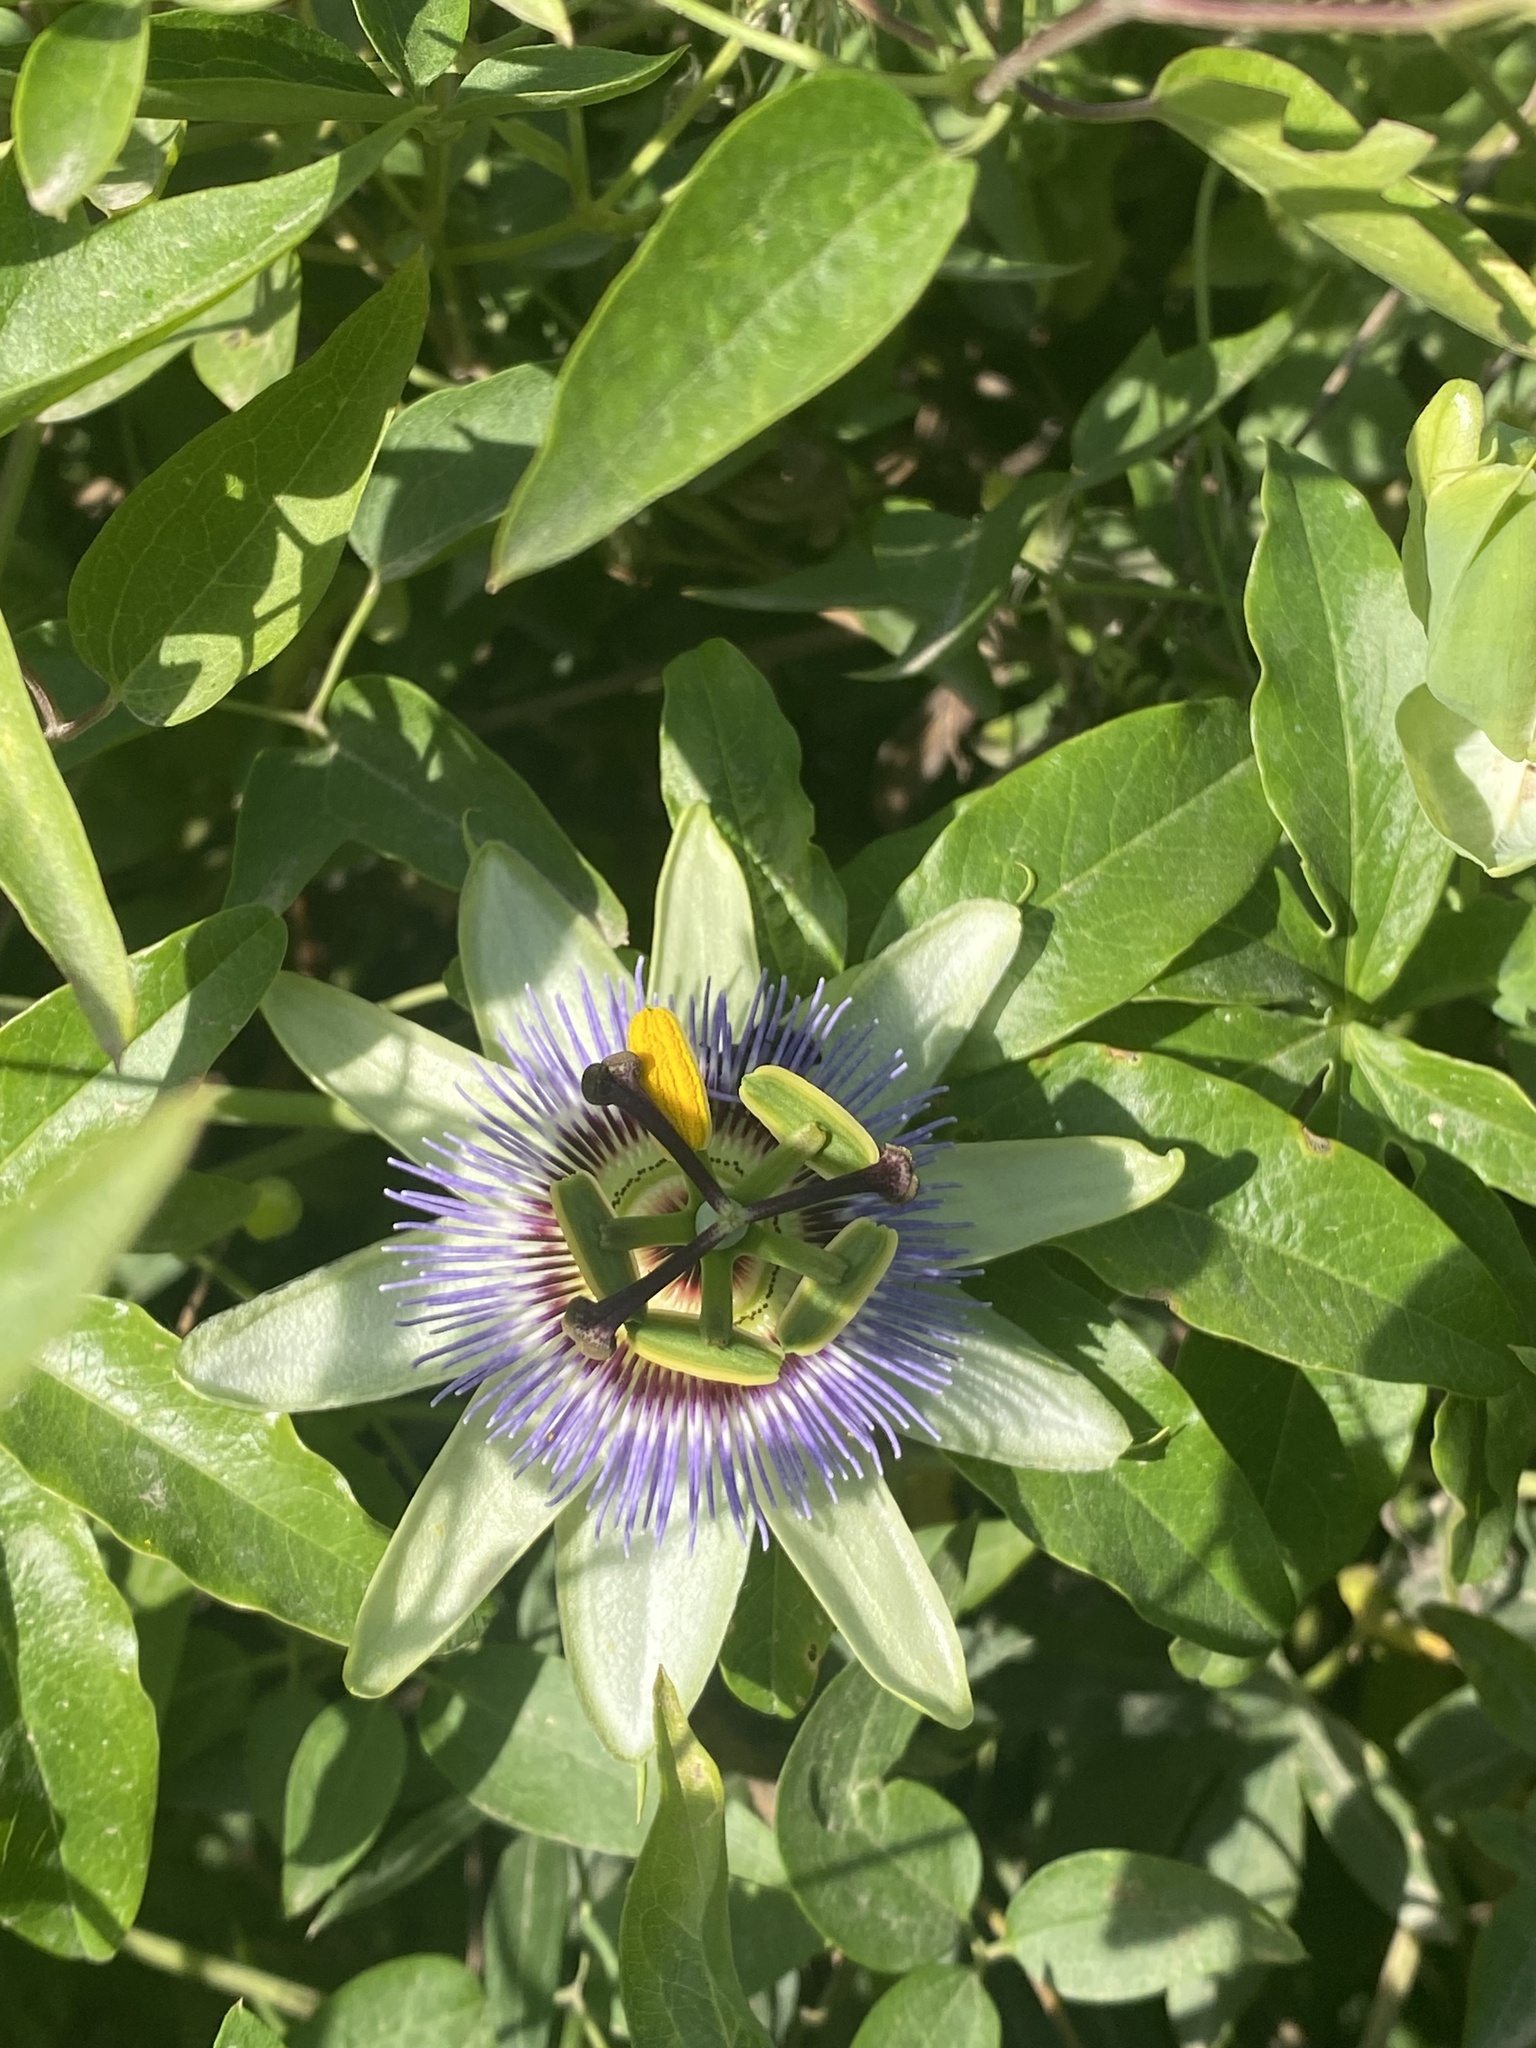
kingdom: Plantae
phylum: Tracheophyta
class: Magnoliopsida
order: Malpighiales
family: Passifloraceae
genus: Passiflora
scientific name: Passiflora caerulea
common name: Blue passionflower
